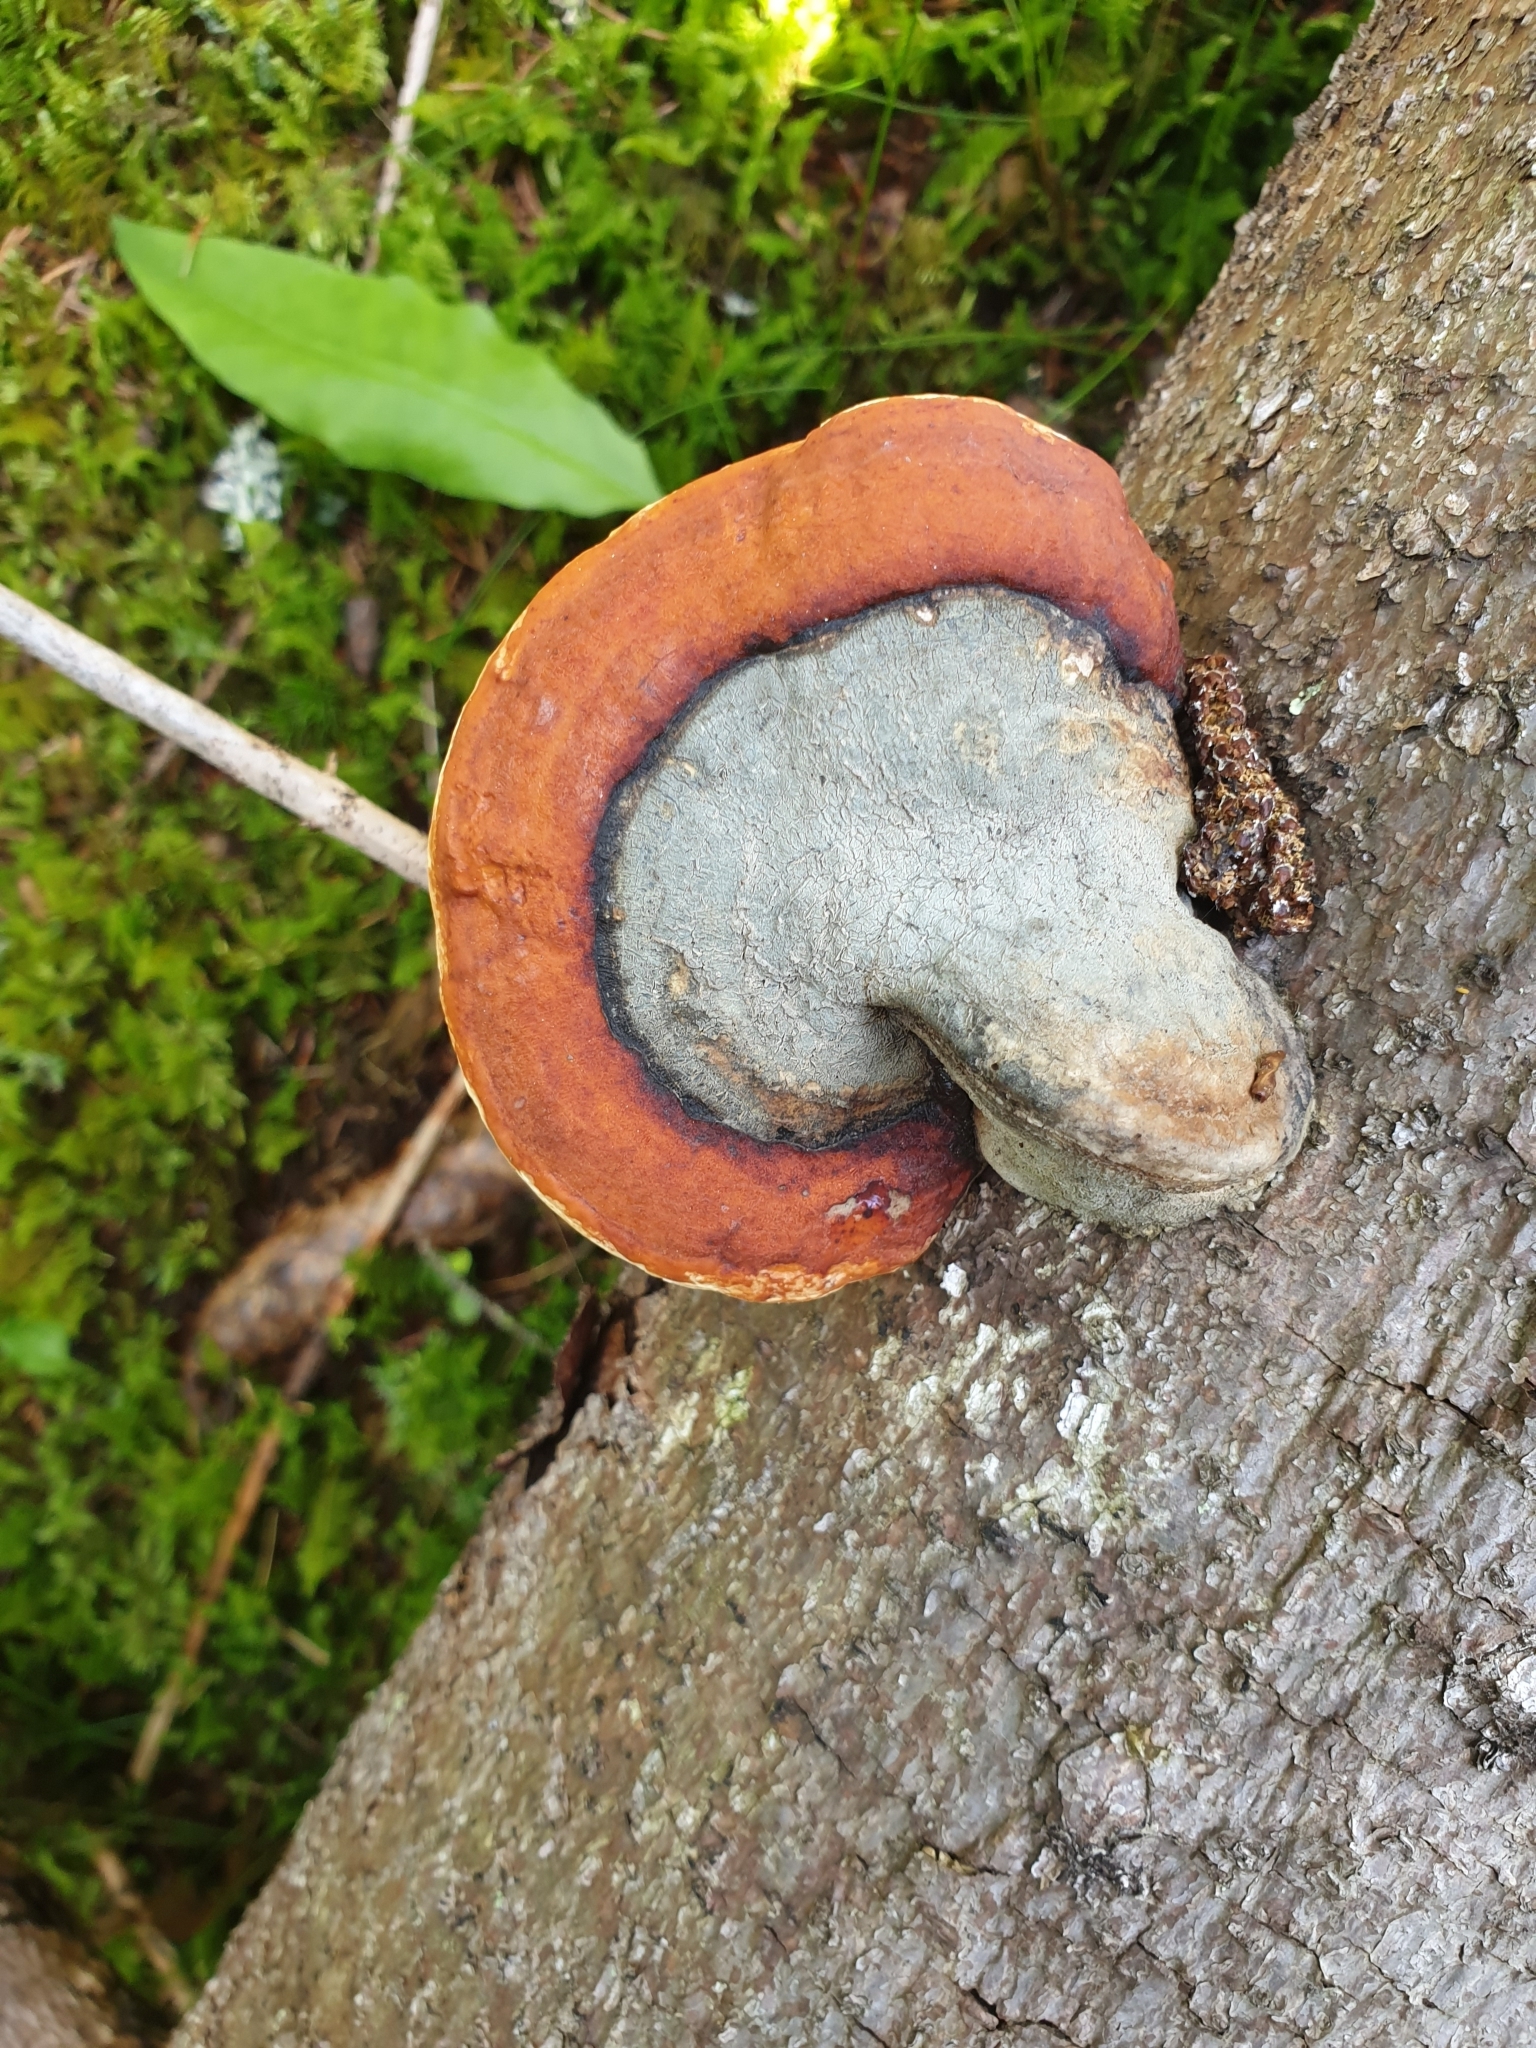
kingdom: Fungi
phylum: Basidiomycota
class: Agaricomycetes
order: Polyporales
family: Fomitopsidaceae
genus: Fomitopsis
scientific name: Fomitopsis pinicola
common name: Red-belted bracket
